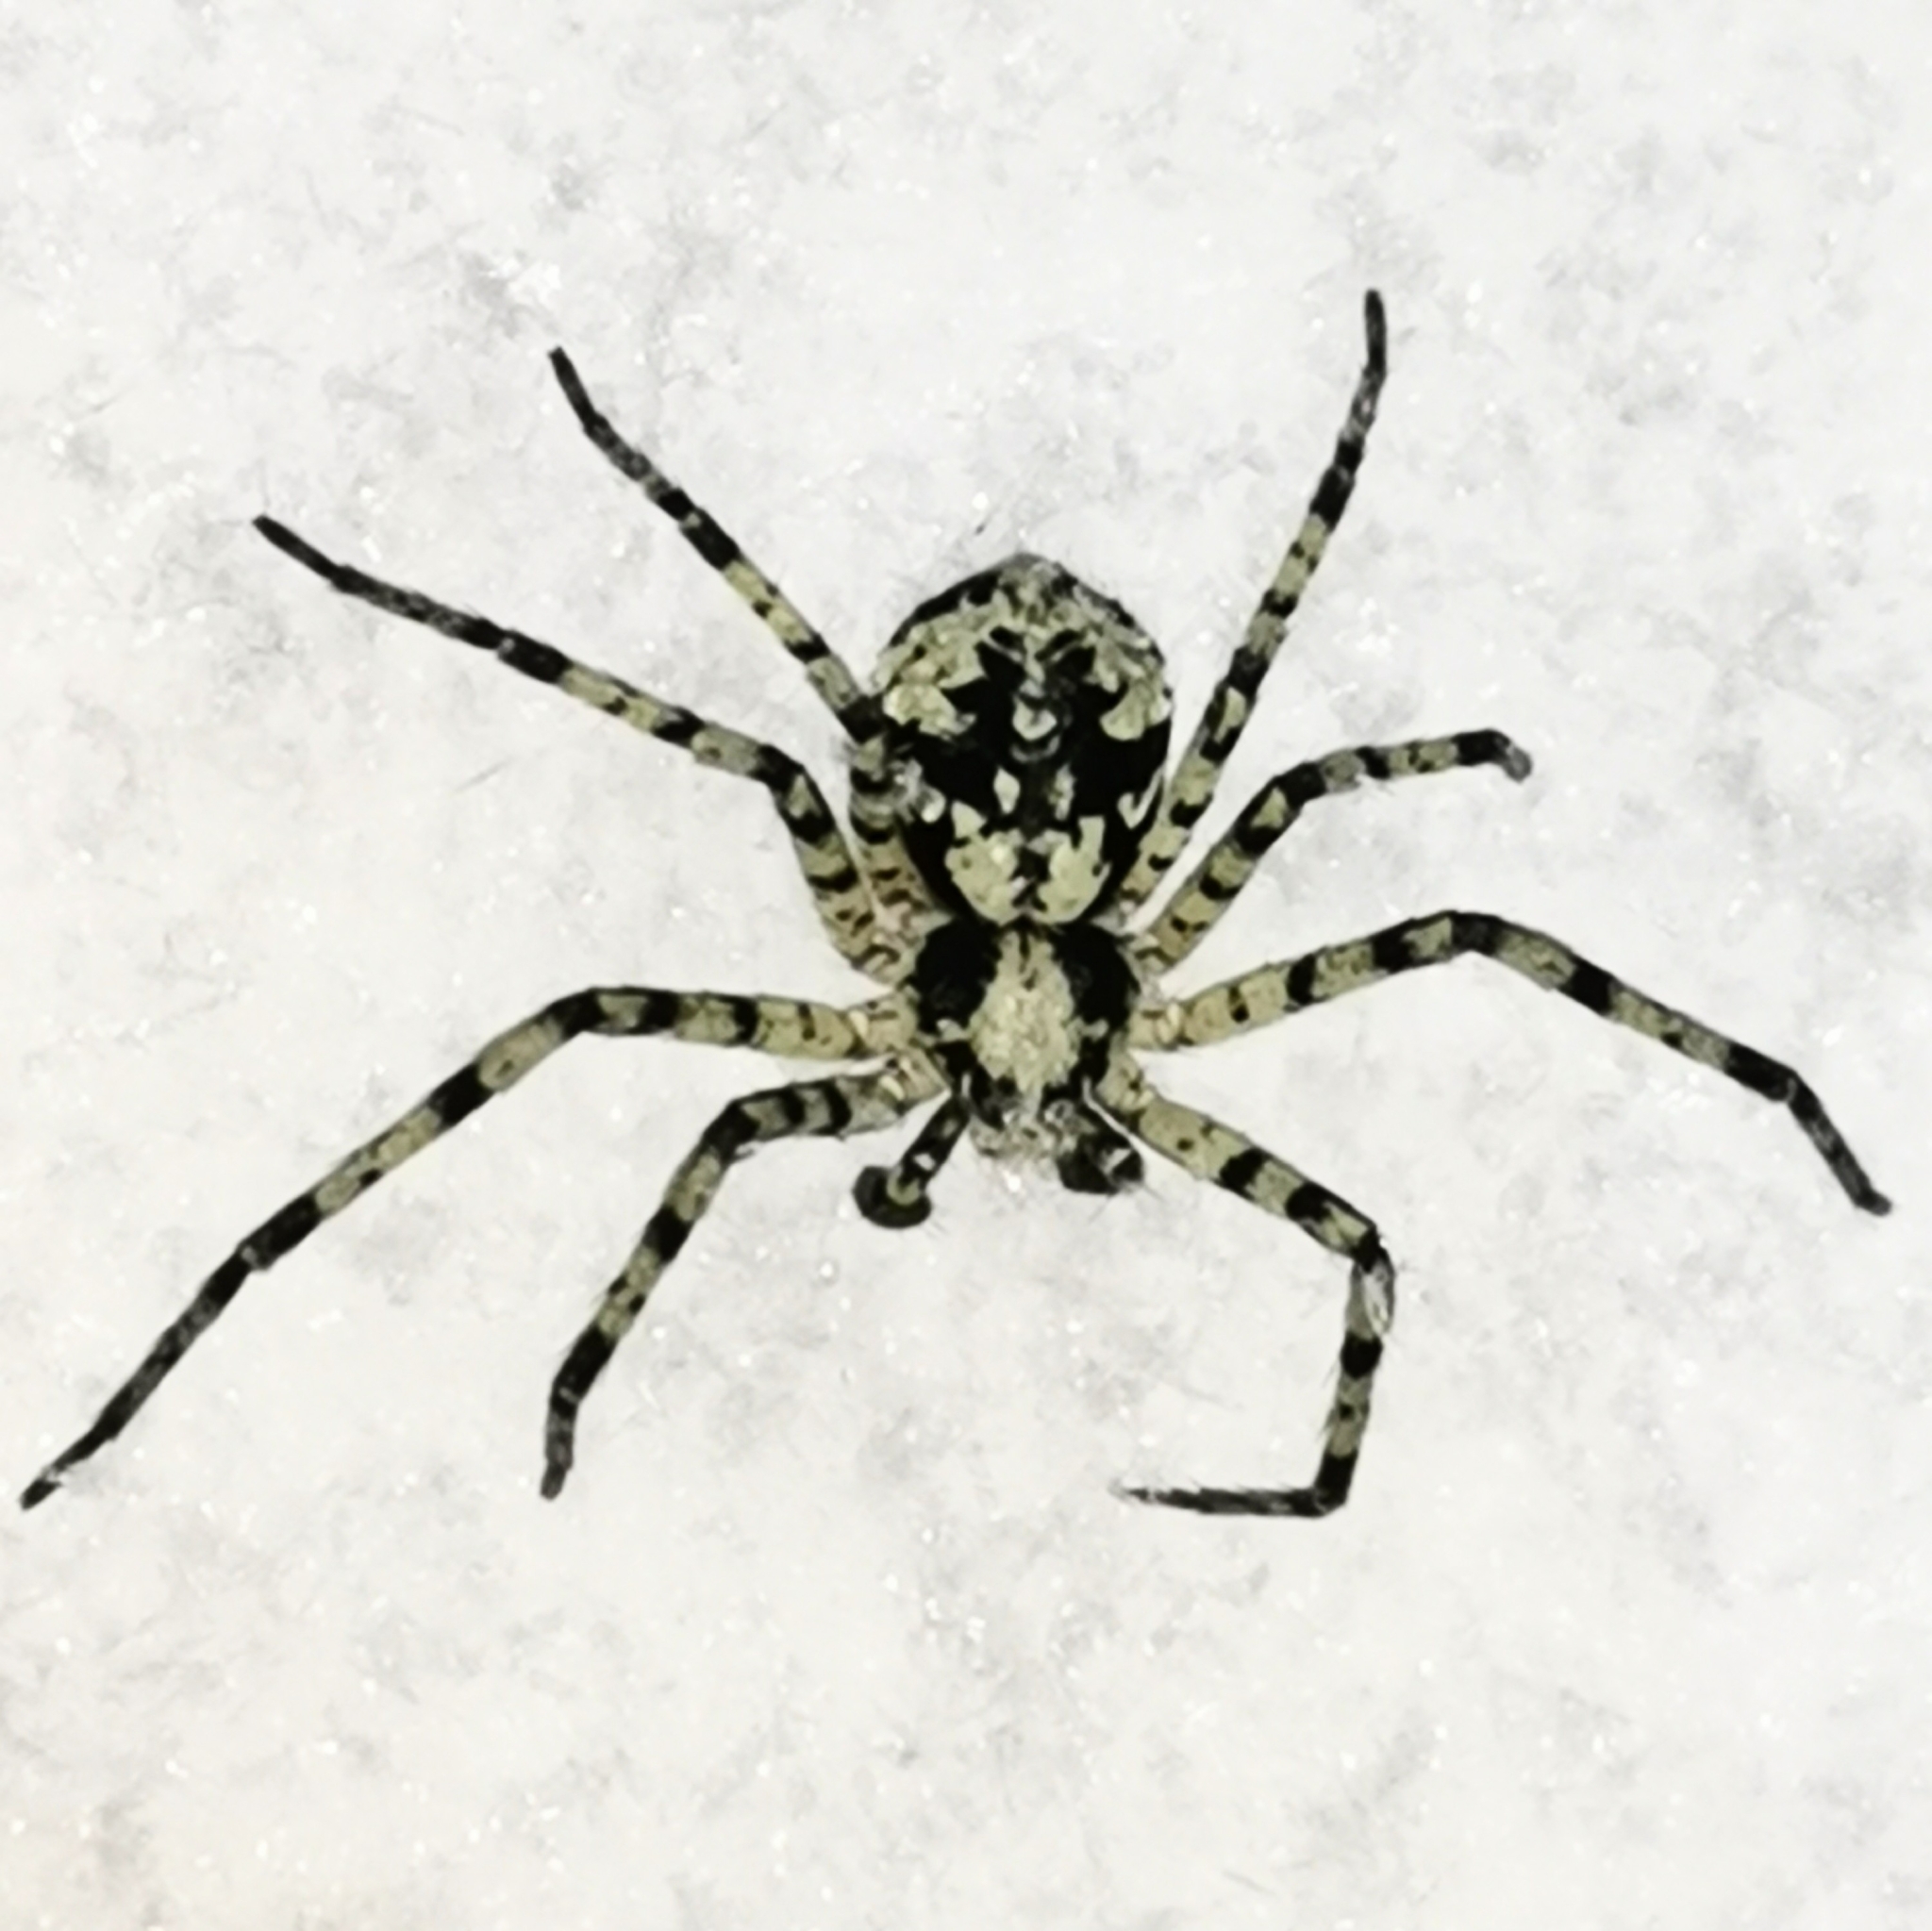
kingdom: Animalia
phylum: Arthropoda
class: Arachnida
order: Araneae
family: Philodromidae
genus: Philodromus
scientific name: Philodromus margaritatus
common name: Lichen running-spider
